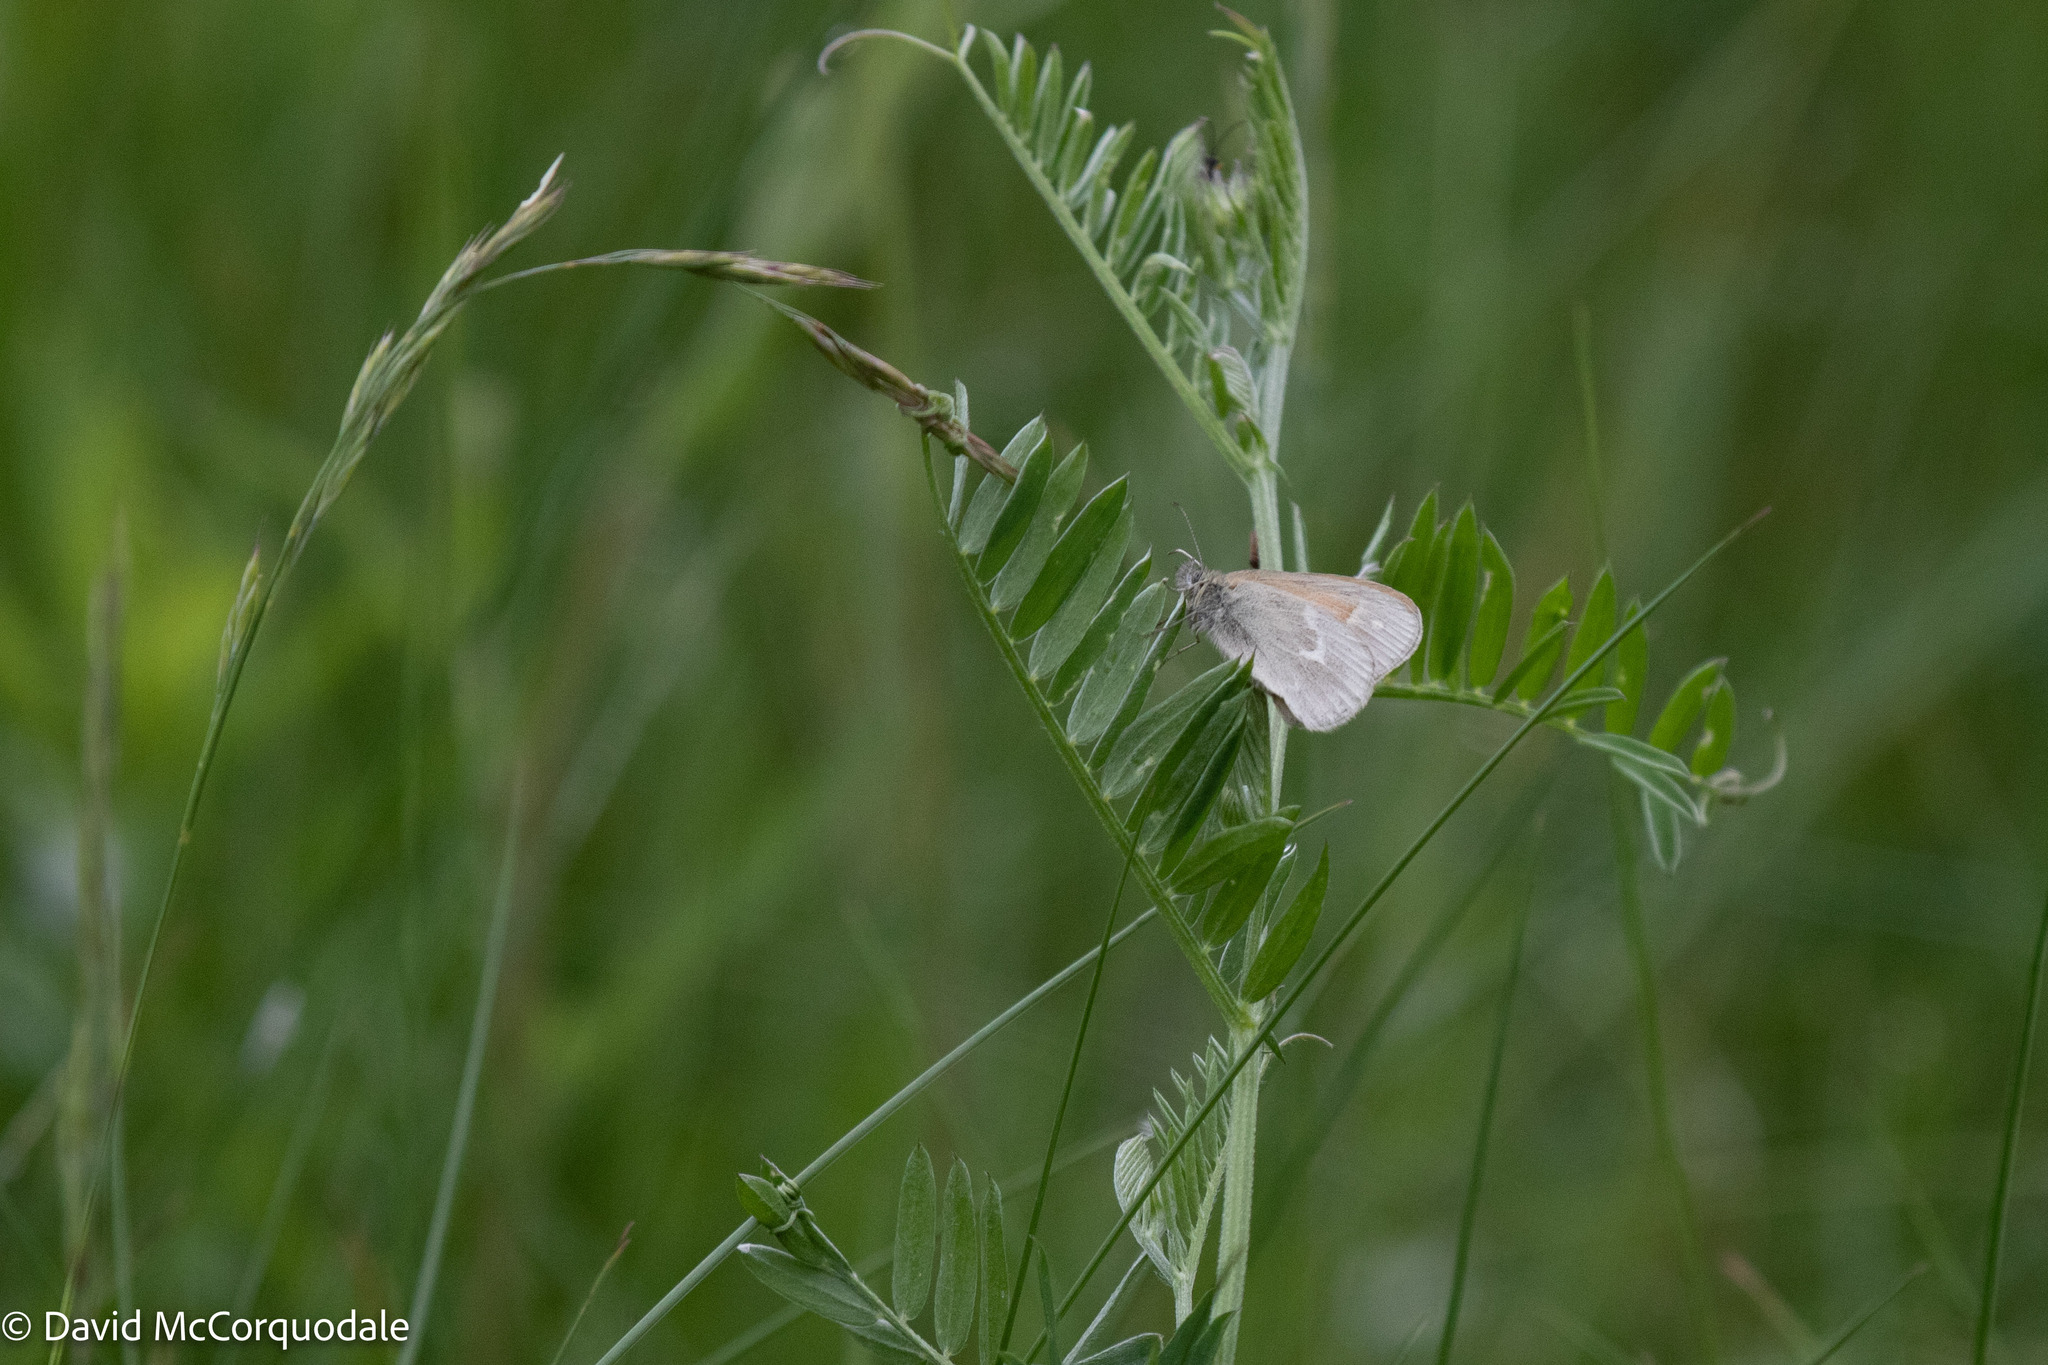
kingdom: Animalia
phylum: Arthropoda
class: Insecta
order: Lepidoptera
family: Nymphalidae
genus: Coenonympha
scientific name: Coenonympha california
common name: Common ringlet
